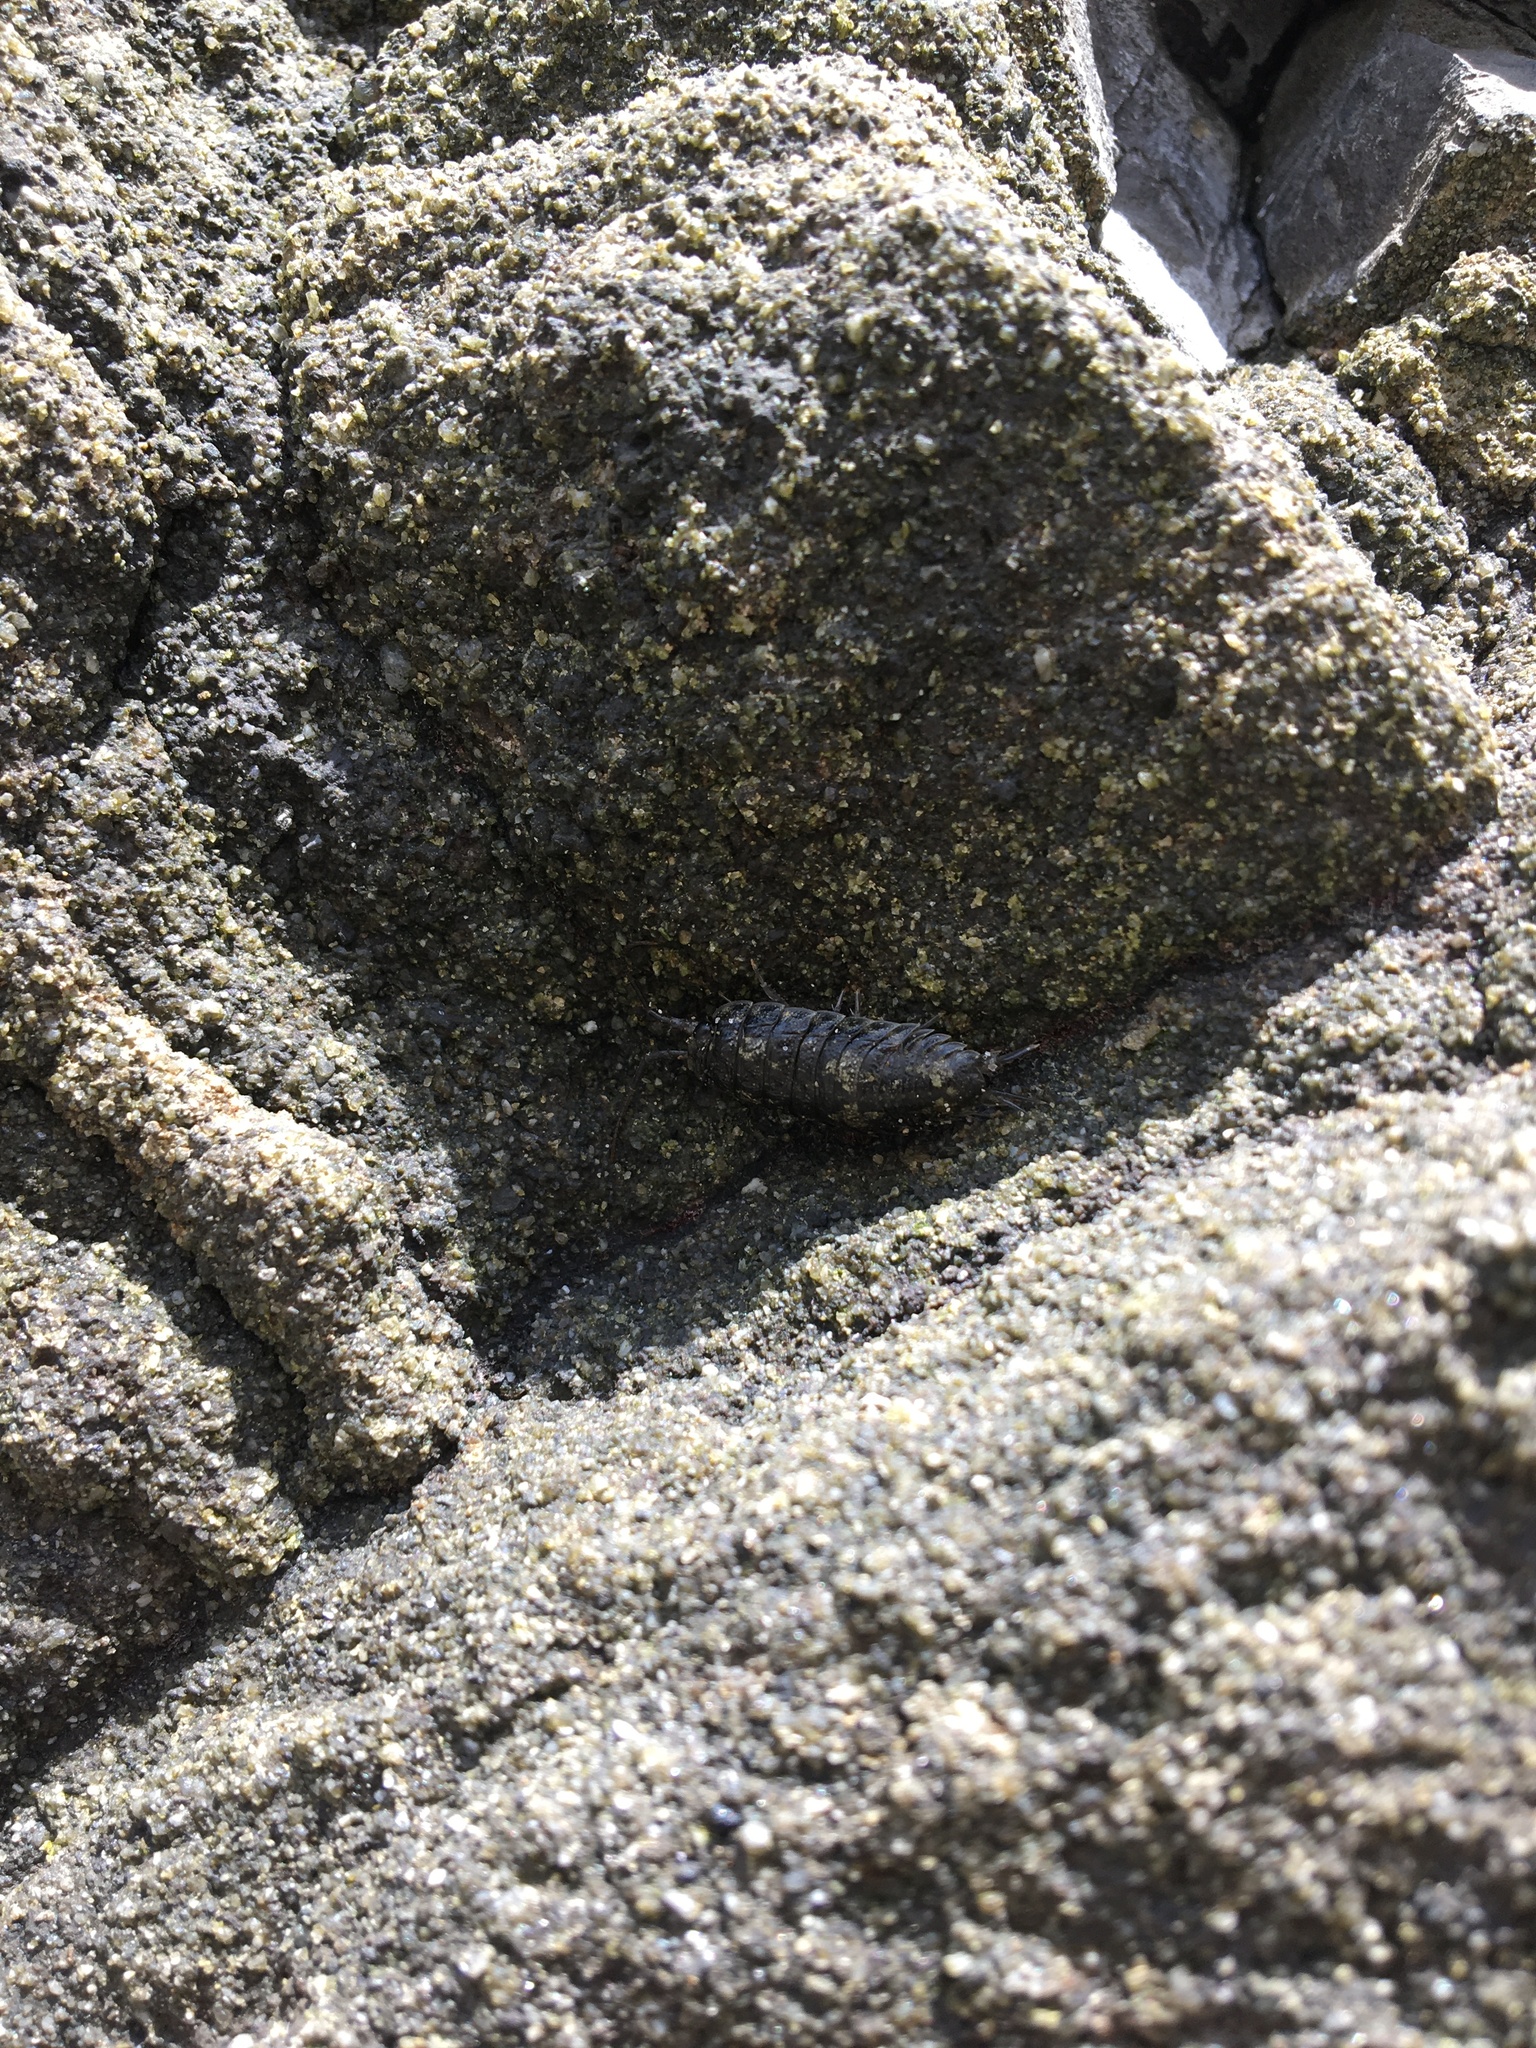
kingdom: Animalia
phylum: Arthropoda
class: Malacostraca
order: Isopoda
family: Ligiidae
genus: Ligia
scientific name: Ligia pallasii
